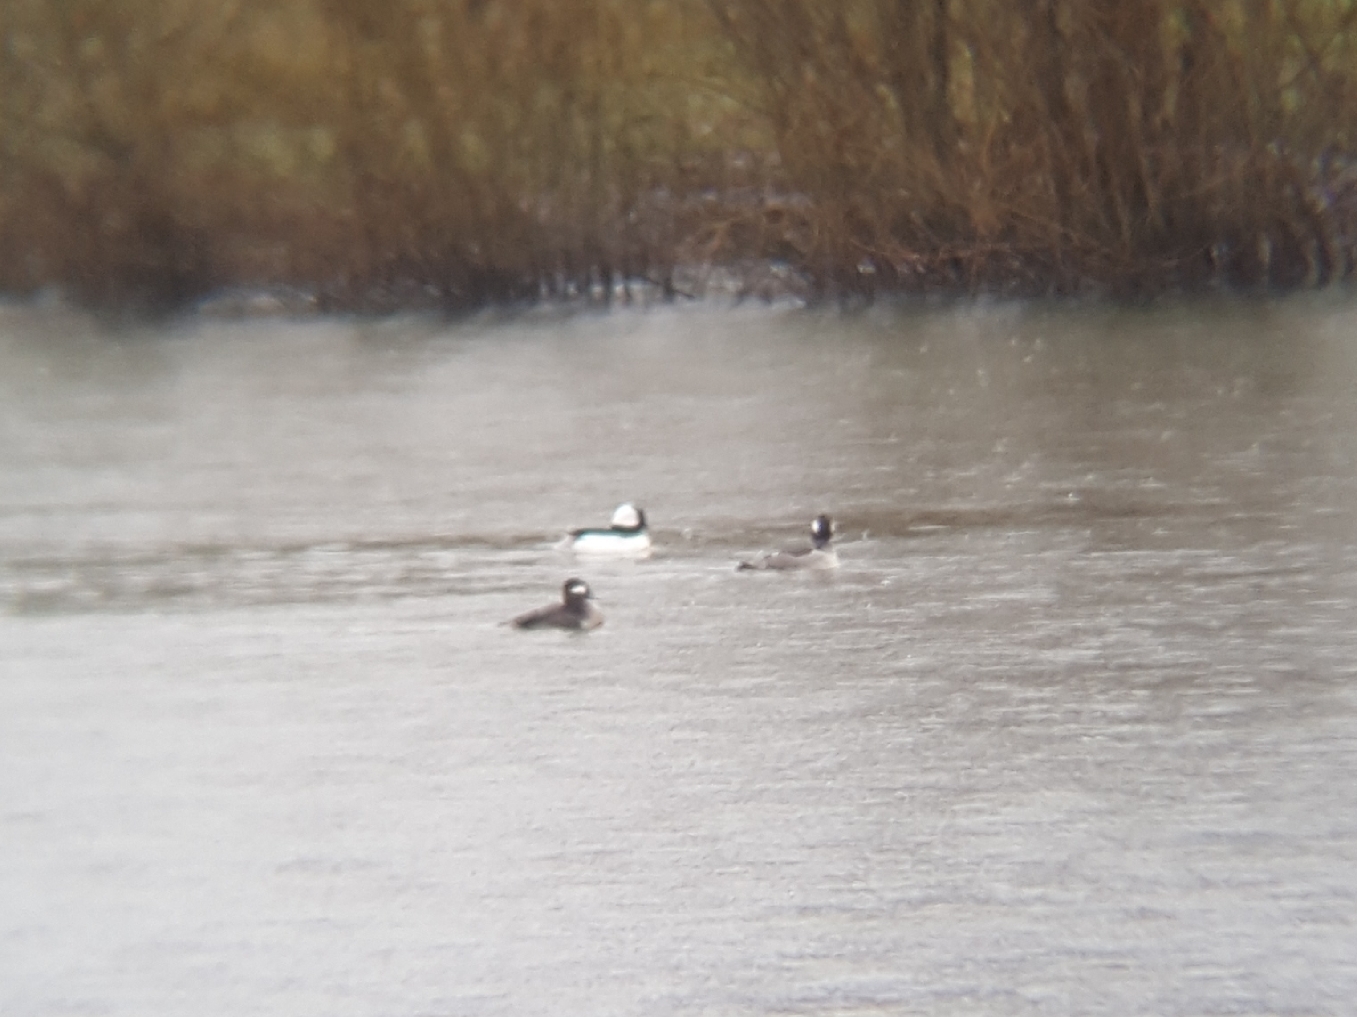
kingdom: Animalia
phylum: Chordata
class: Aves
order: Anseriformes
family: Anatidae
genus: Bucephala
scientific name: Bucephala albeola
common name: Bufflehead
